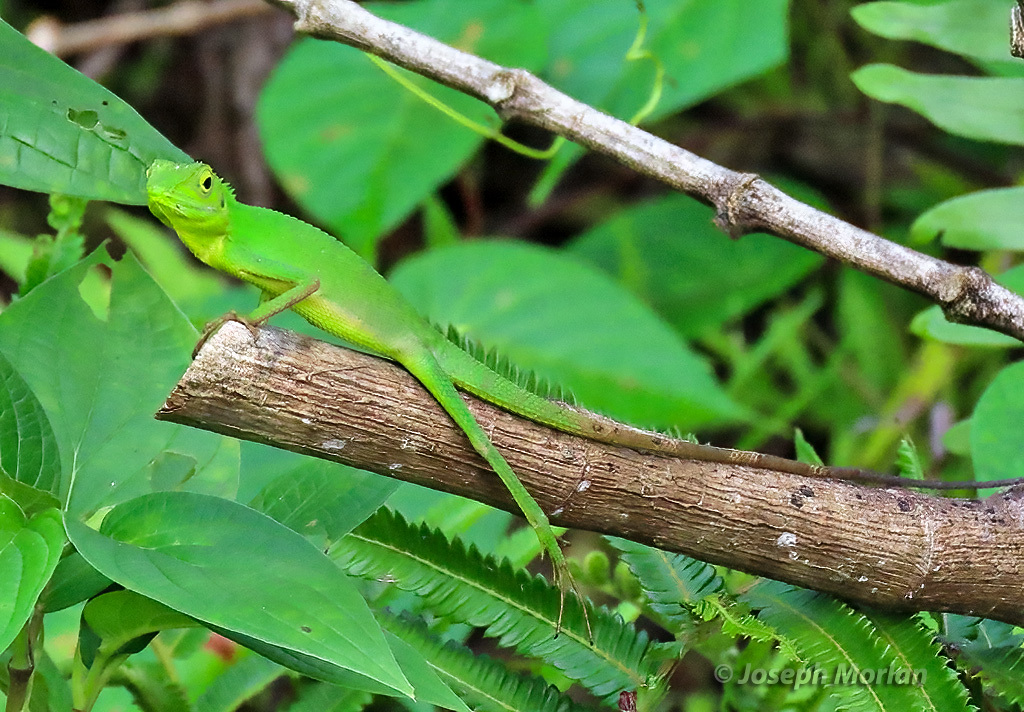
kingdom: Animalia
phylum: Chordata
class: Squamata
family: Agamidae
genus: Bronchocela
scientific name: Bronchocela cristatella
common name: Green crested lizard
